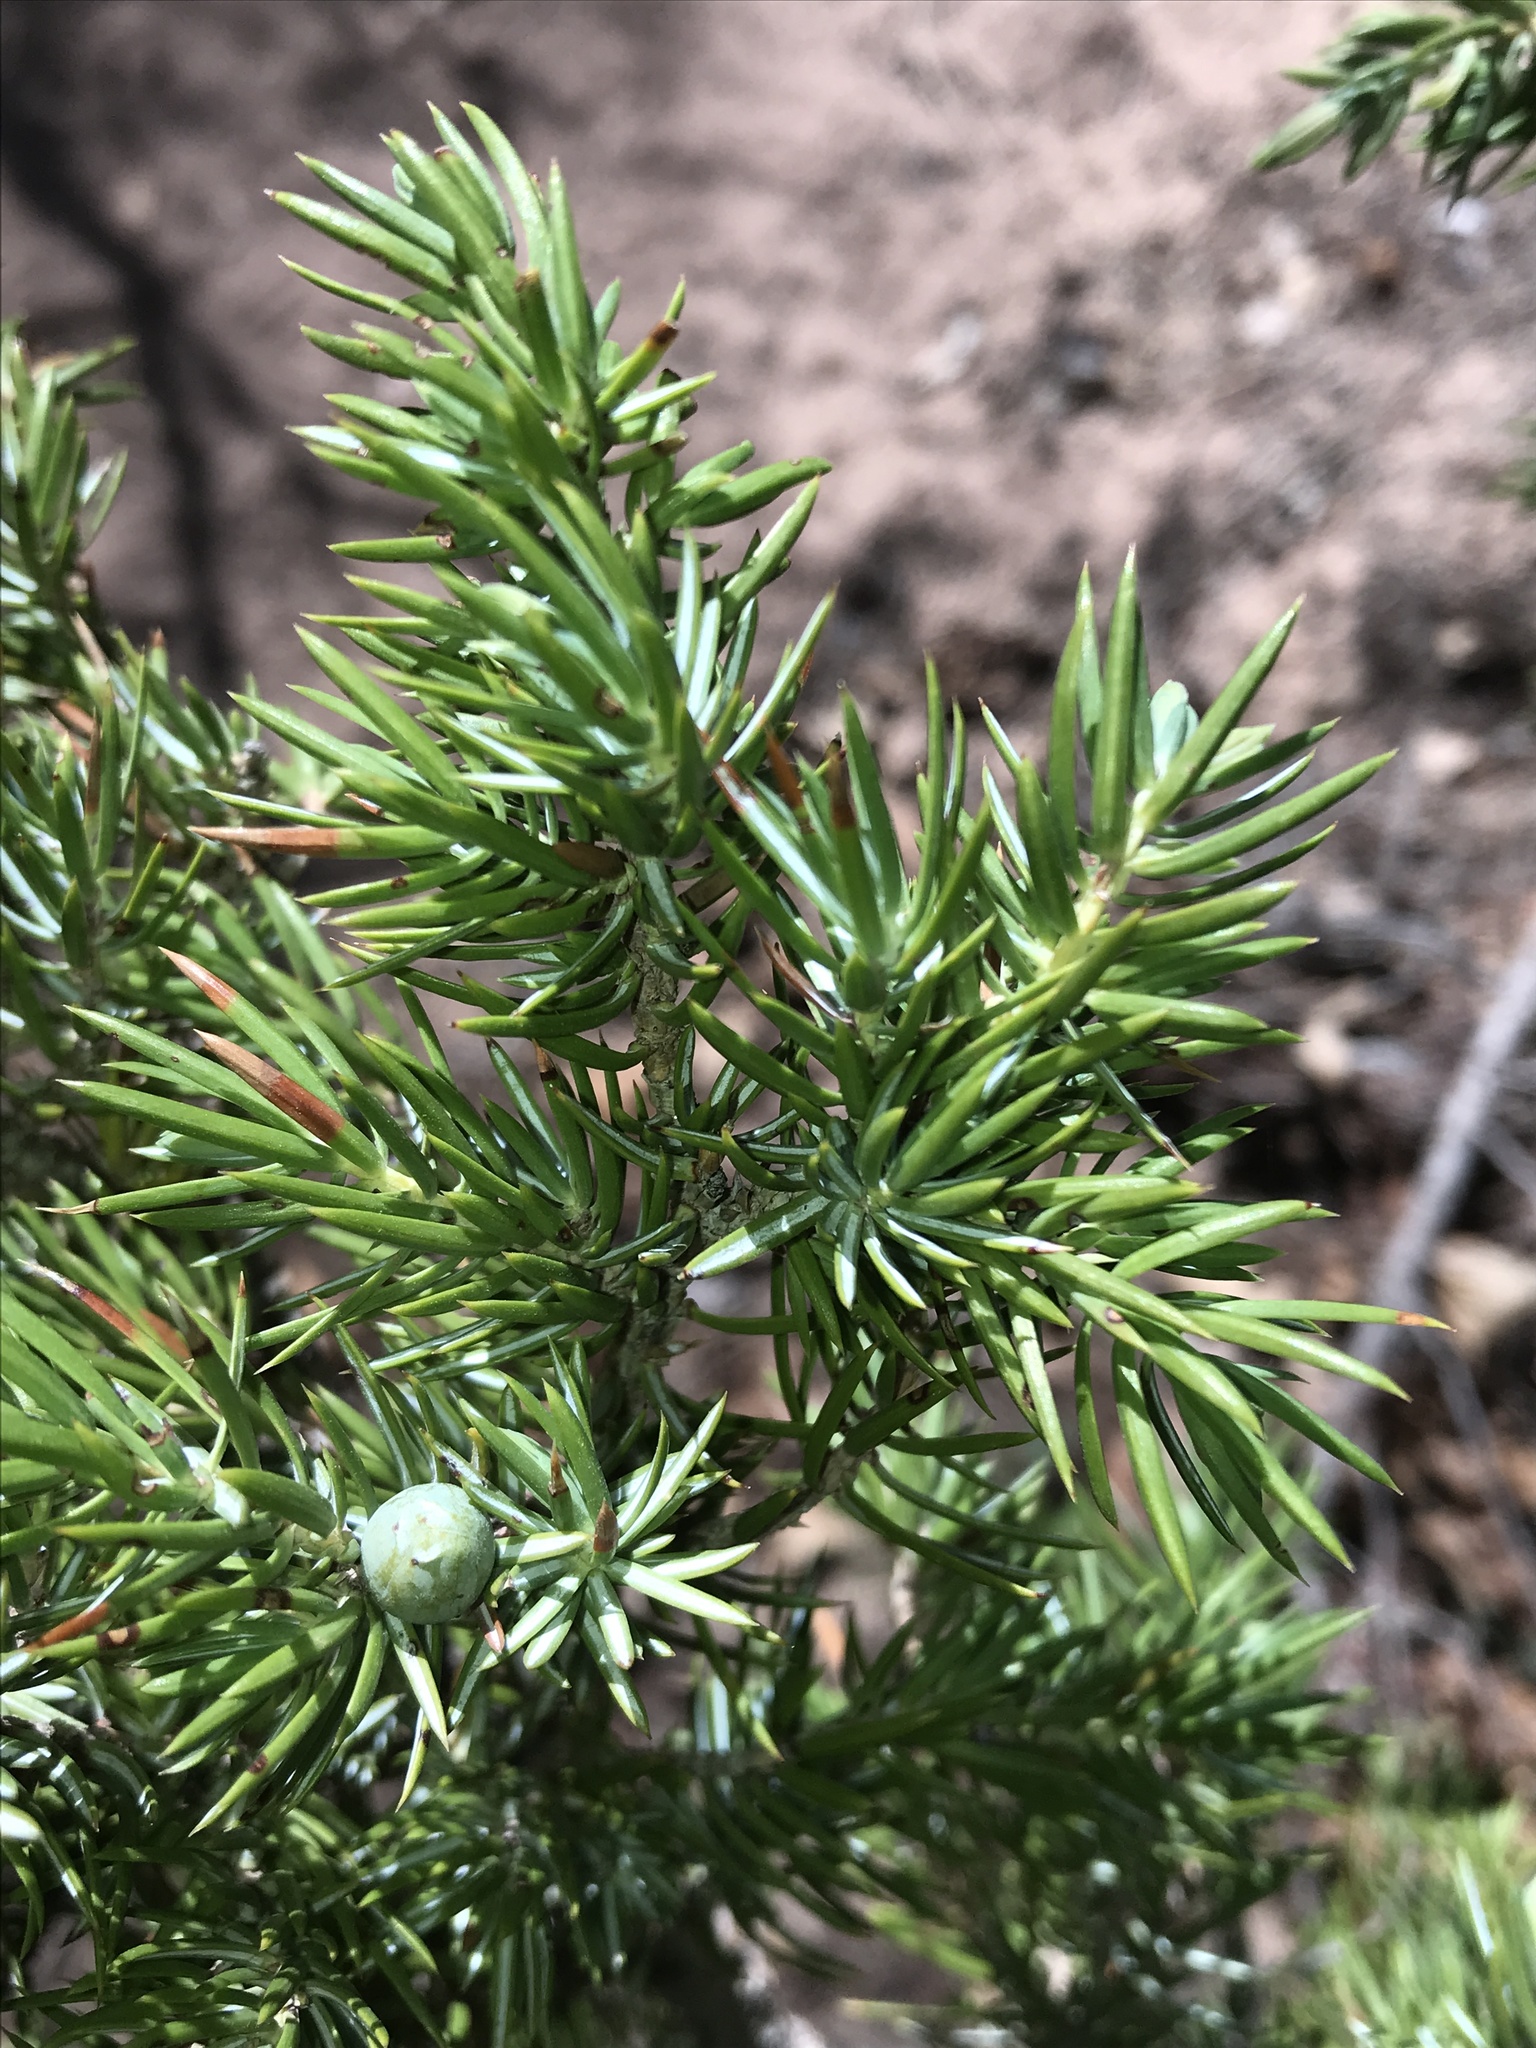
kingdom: Plantae
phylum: Tracheophyta
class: Pinopsida
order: Pinales
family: Cupressaceae
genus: Juniperus
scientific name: Juniperus communis
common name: Common juniper
